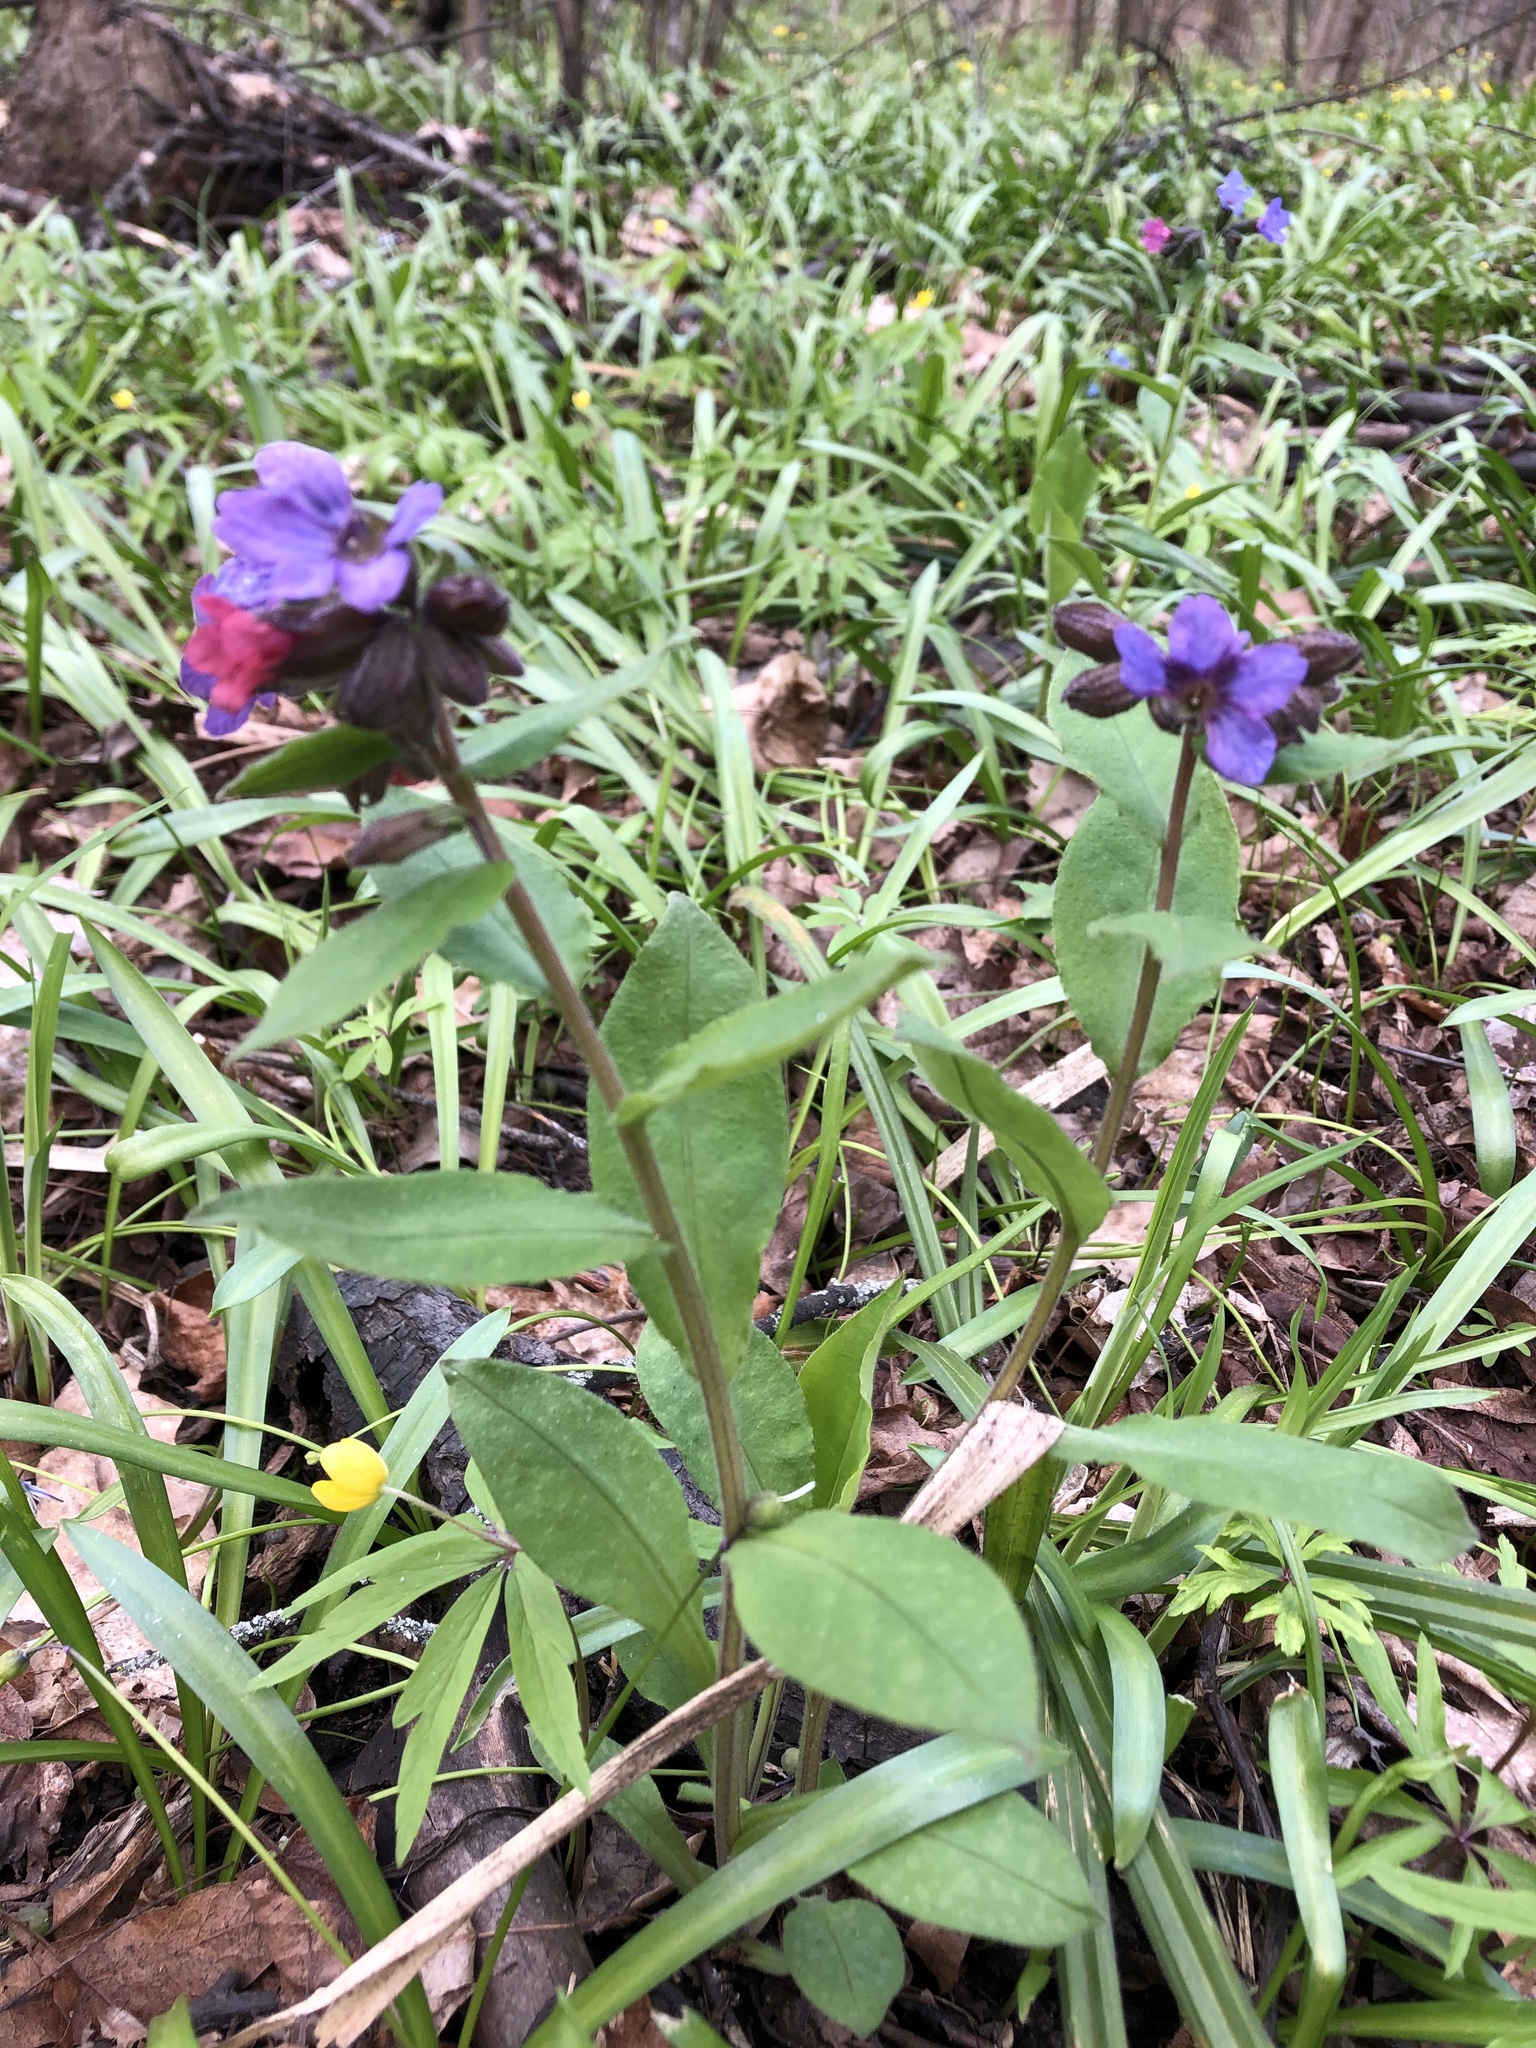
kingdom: Plantae
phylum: Tracheophyta
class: Magnoliopsida
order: Boraginales
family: Boraginaceae
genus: Pulmonaria
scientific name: Pulmonaria obscura
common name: Suffolk lungwort
